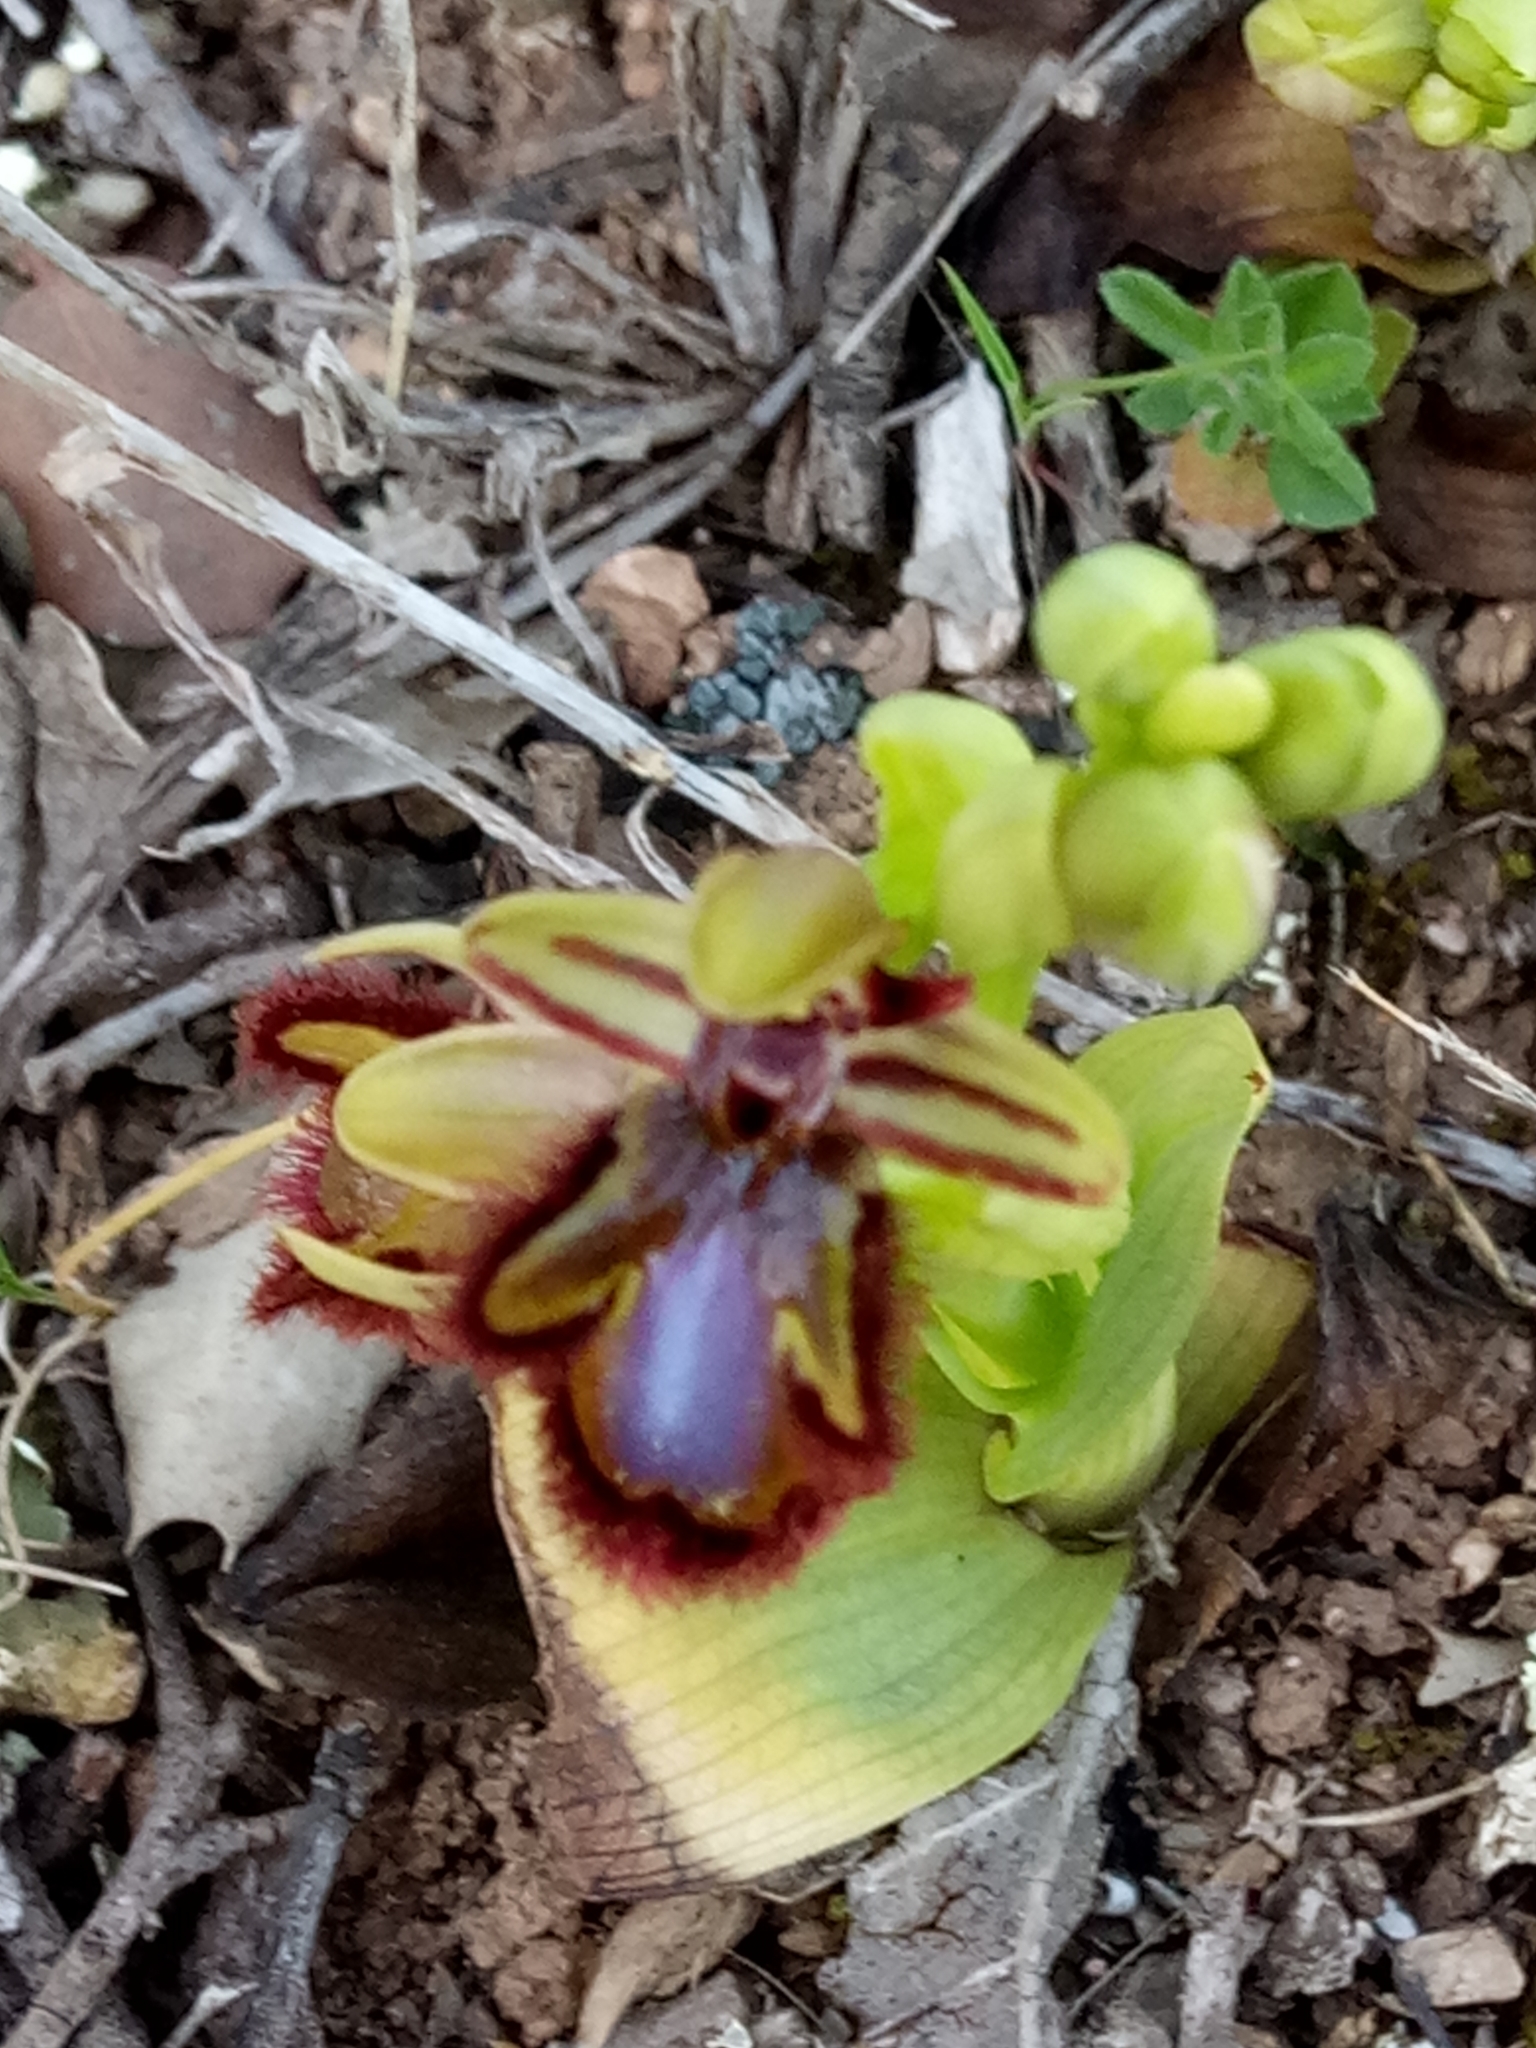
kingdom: Plantae
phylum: Tracheophyta
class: Liliopsida
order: Asparagales
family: Orchidaceae
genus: Ophrys
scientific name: Ophrys speculum
